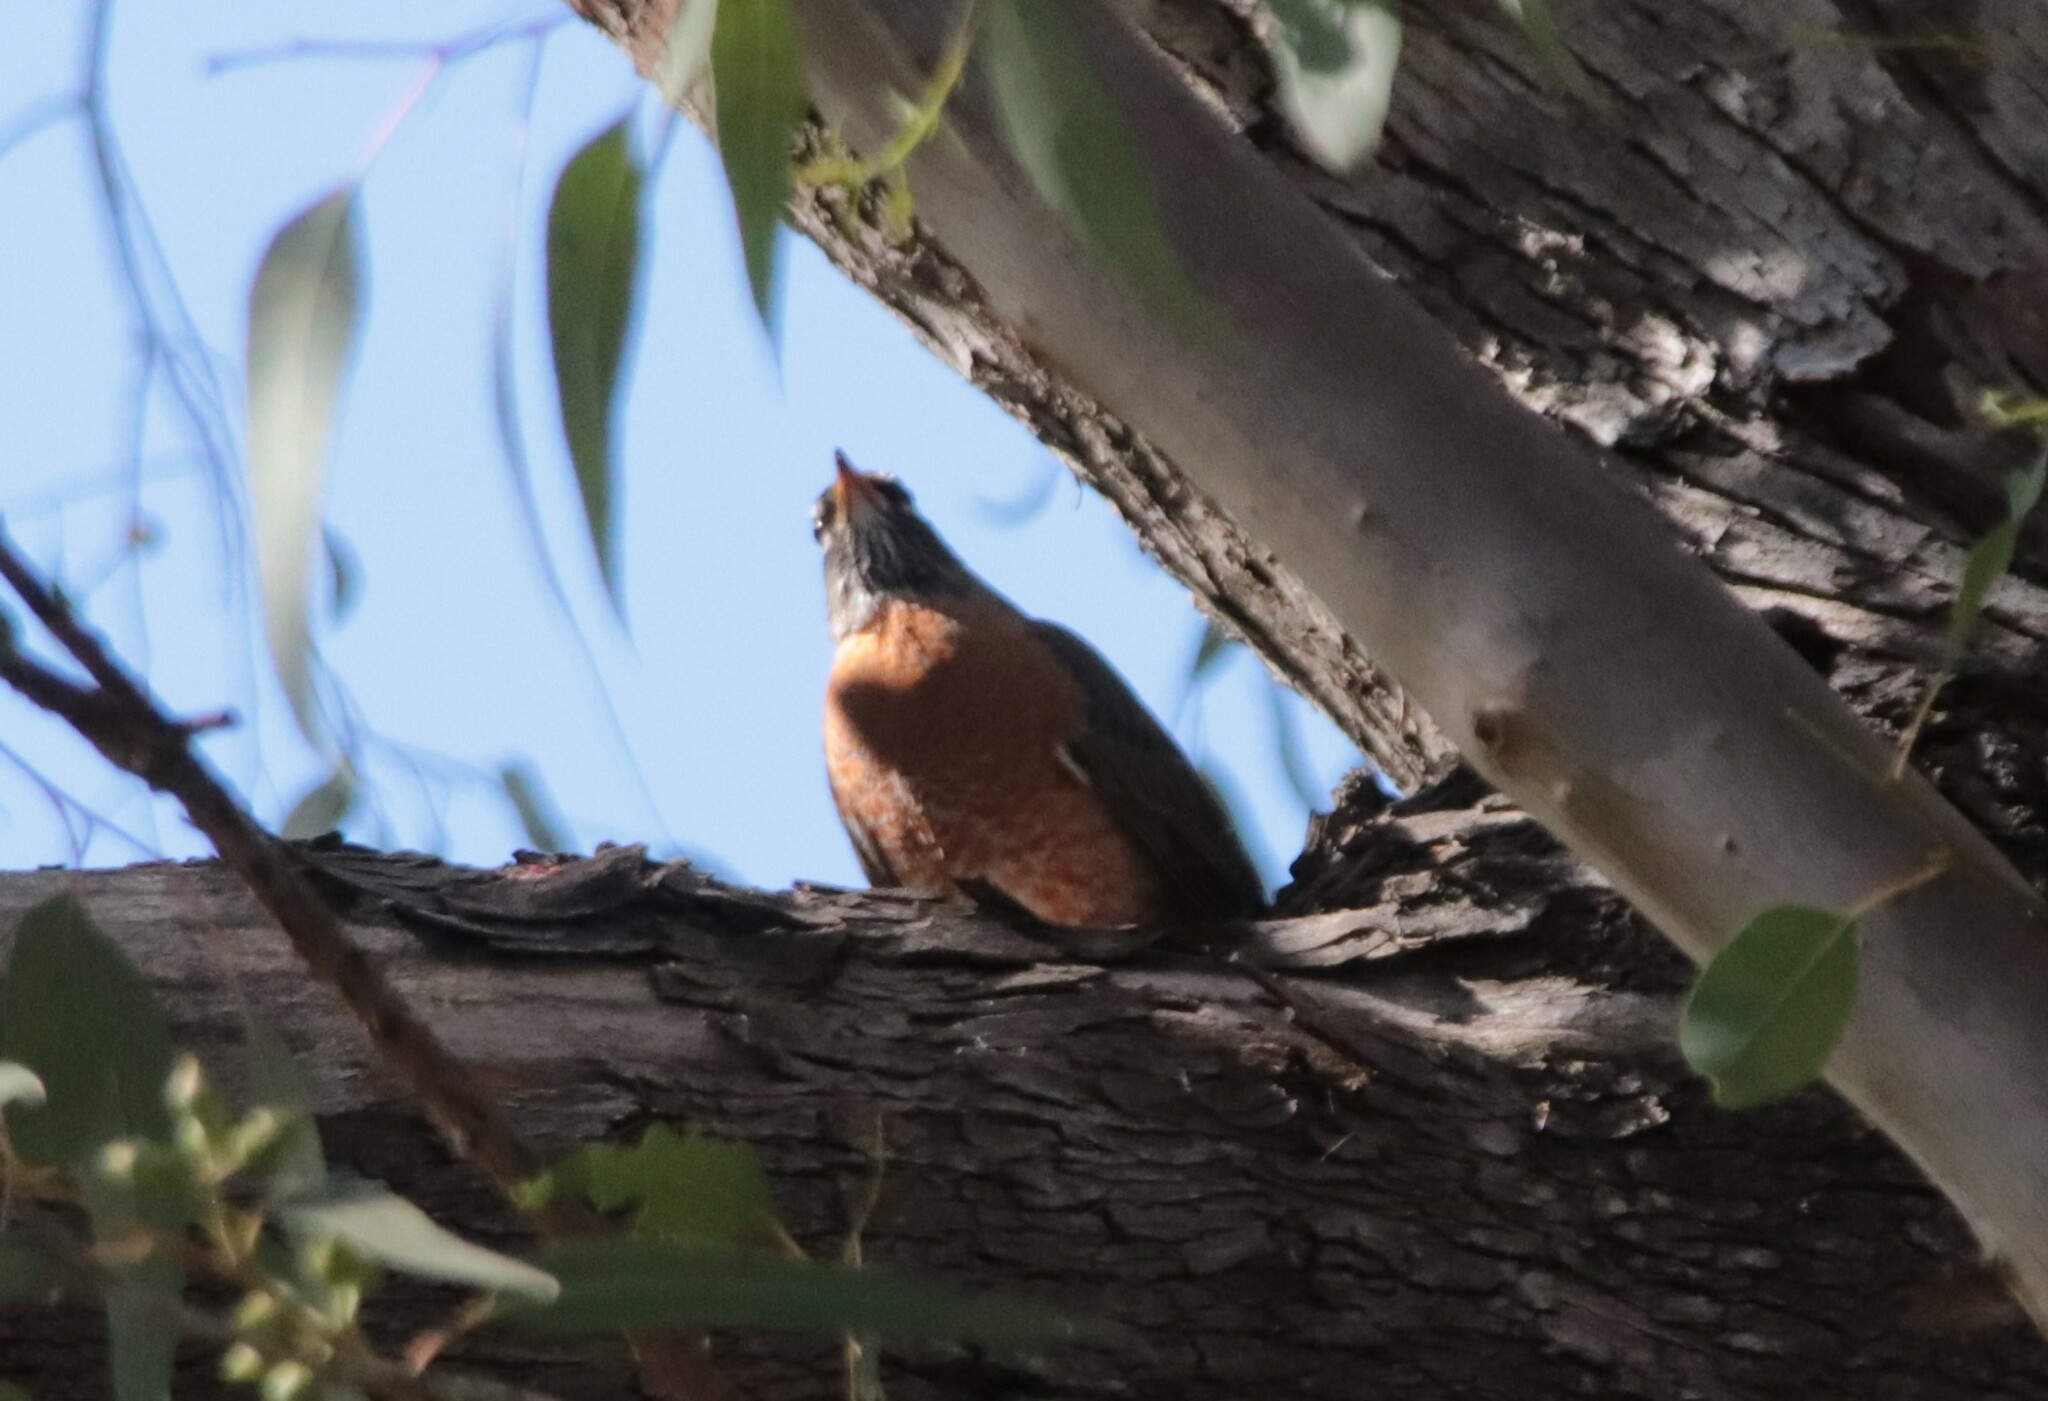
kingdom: Animalia
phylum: Chordata
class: Aves
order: Passeriformes
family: Turdidae
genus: Turdus
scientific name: Turdus migratorius
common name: American robin
